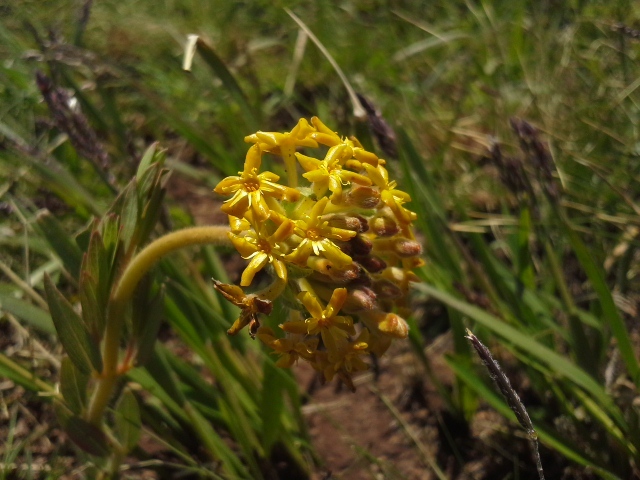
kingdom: Plantae
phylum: Tracheophyta
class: Magnoliopsida
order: Malvales
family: Thymelaeaceae
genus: Gnidia
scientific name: Gnidia kraussiana
